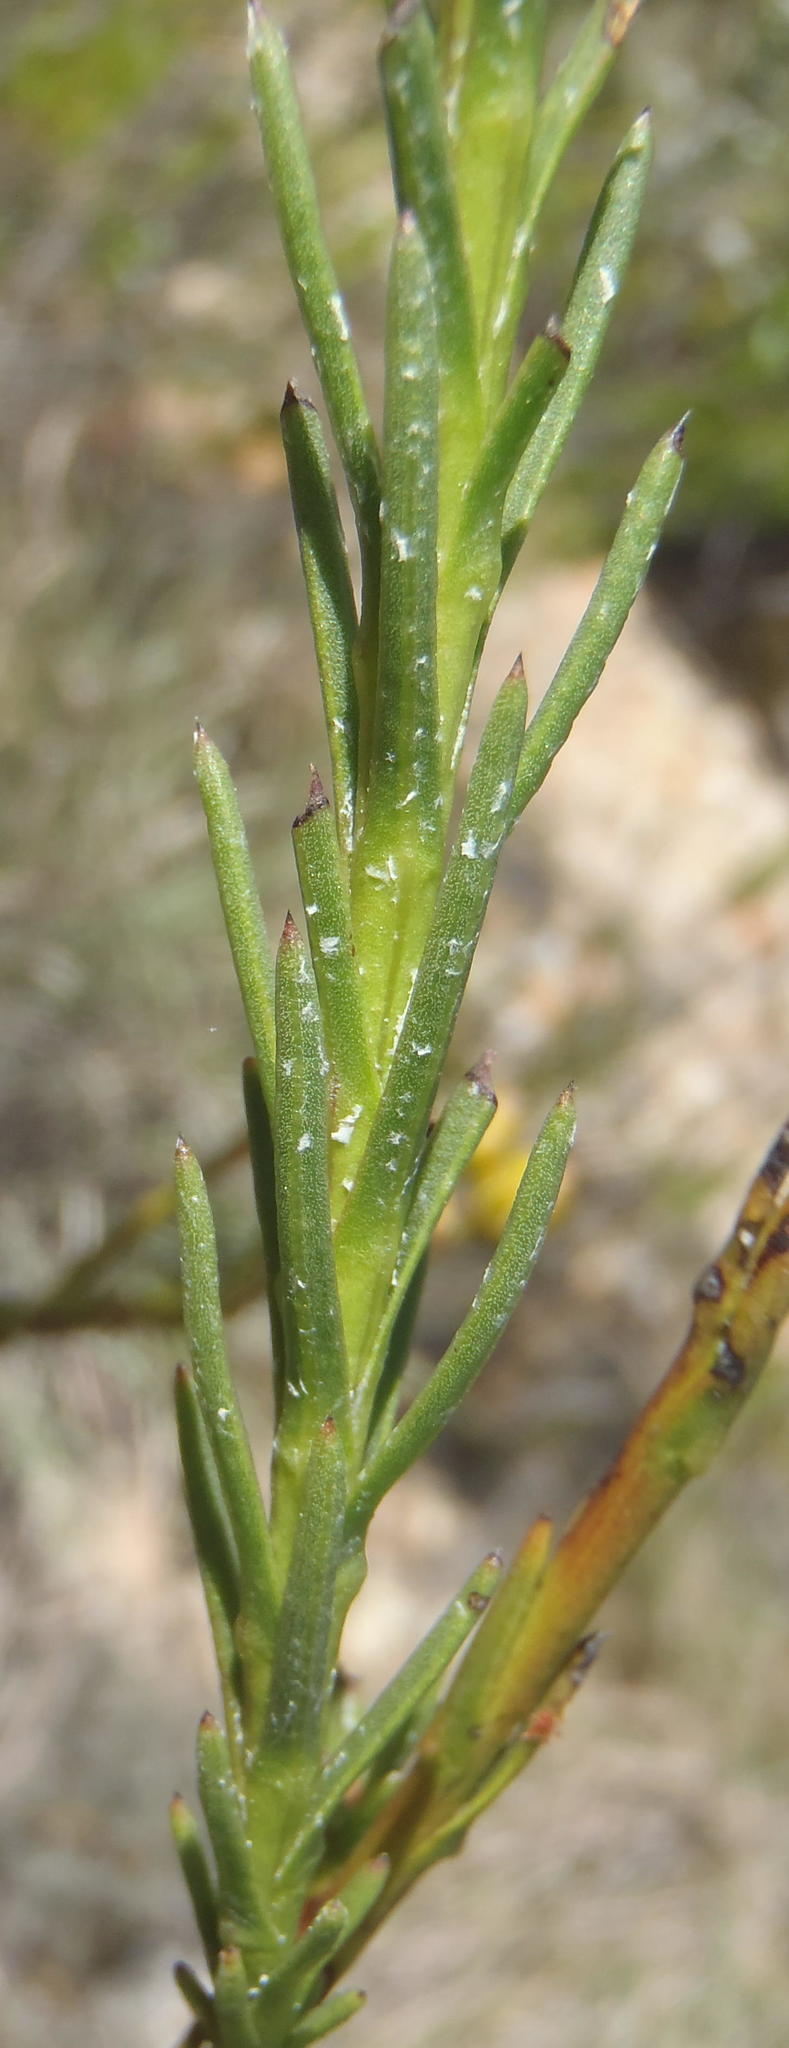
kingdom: Plantae
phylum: Tracheophyta
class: Magnoliopsida
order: Asterales
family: Asteraceae
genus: Athanasia
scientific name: Athanasia linifolia
